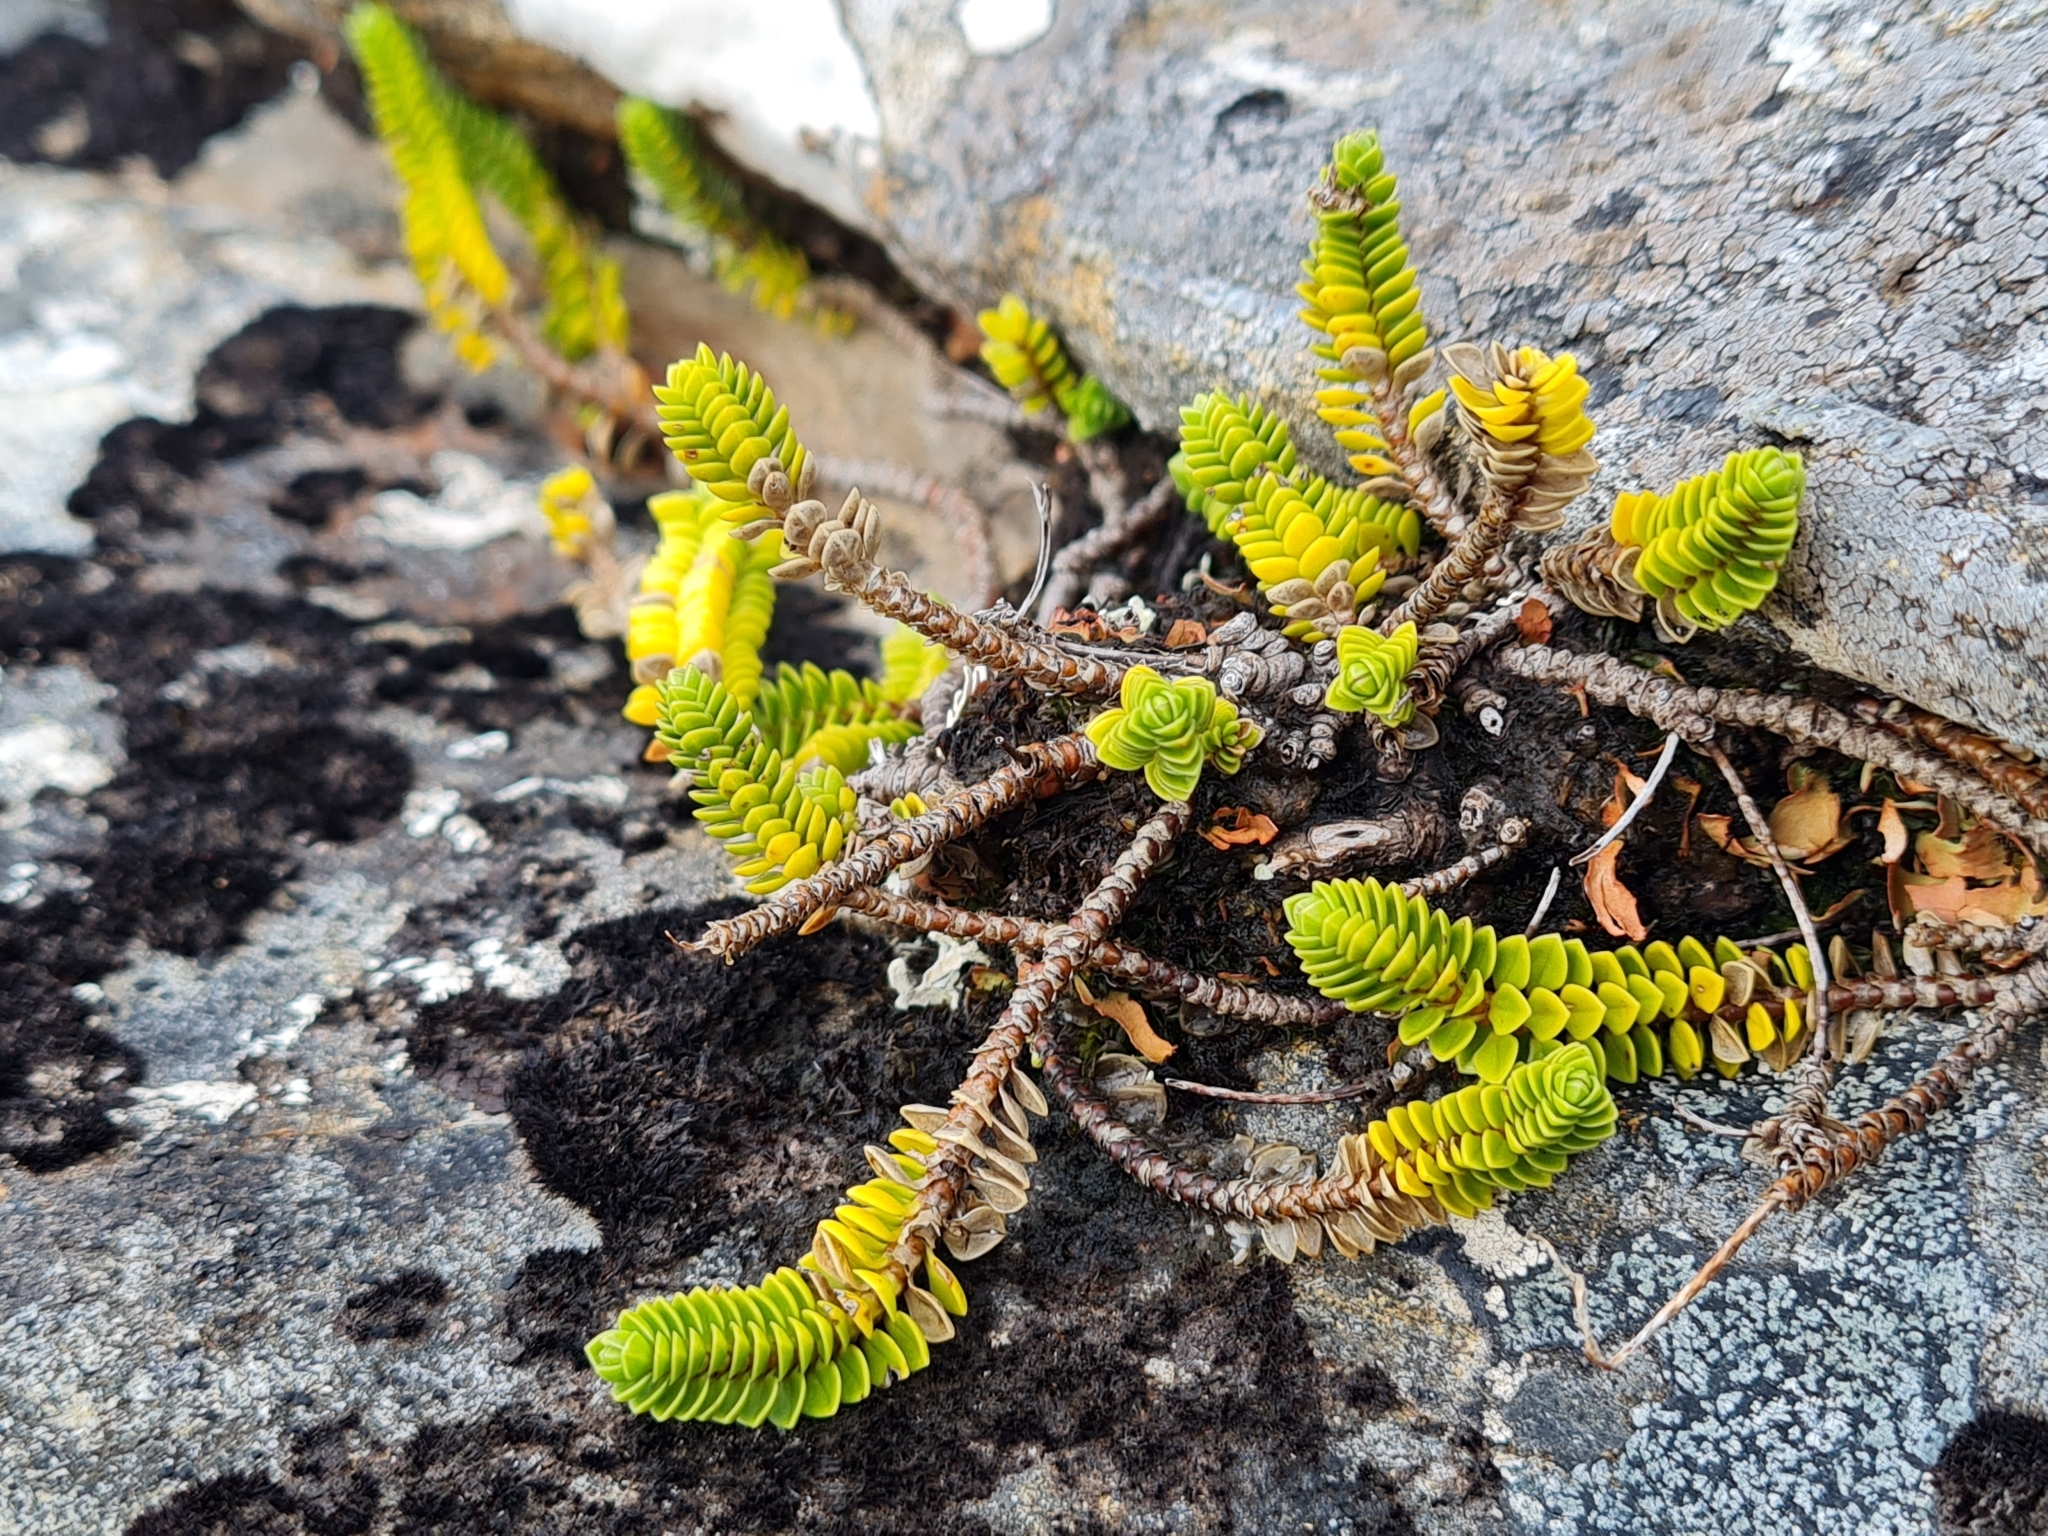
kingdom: Plantae
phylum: Tracheophyta
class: Magnoliopsida
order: Lamiales
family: Plantaginaceae
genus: Veronica
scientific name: Veronica notialis
